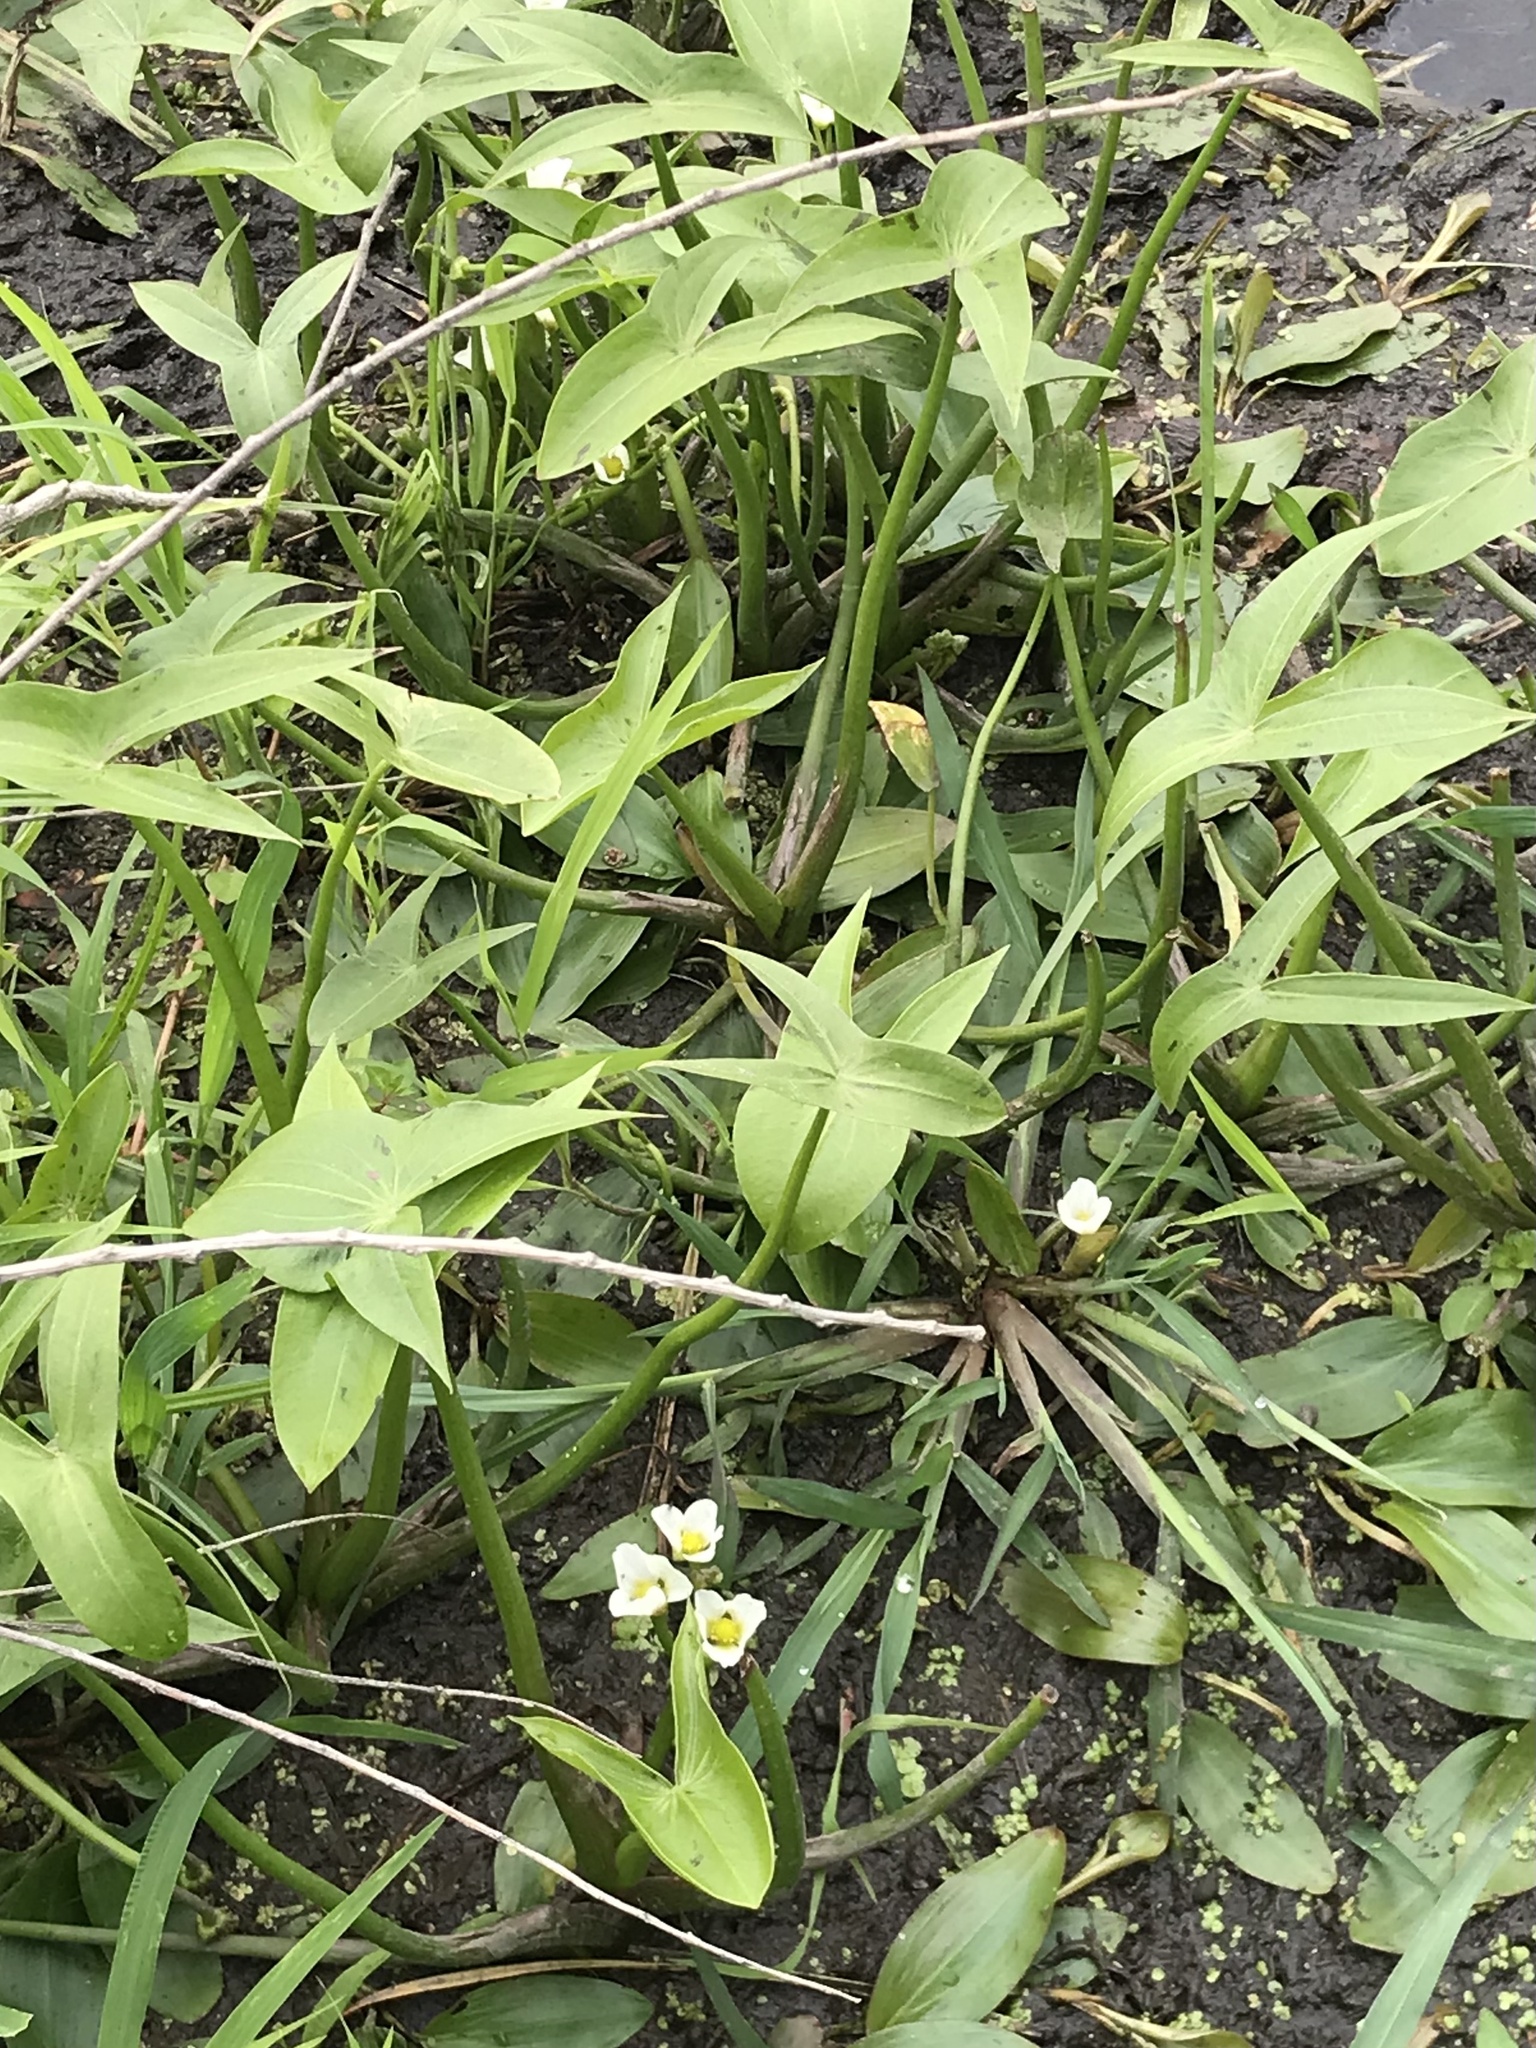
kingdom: Plantae
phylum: Tracheophyta
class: Liliopsida
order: Alismatales
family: Alismataceae
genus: Sagittaria
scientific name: Sagittaria calycina
